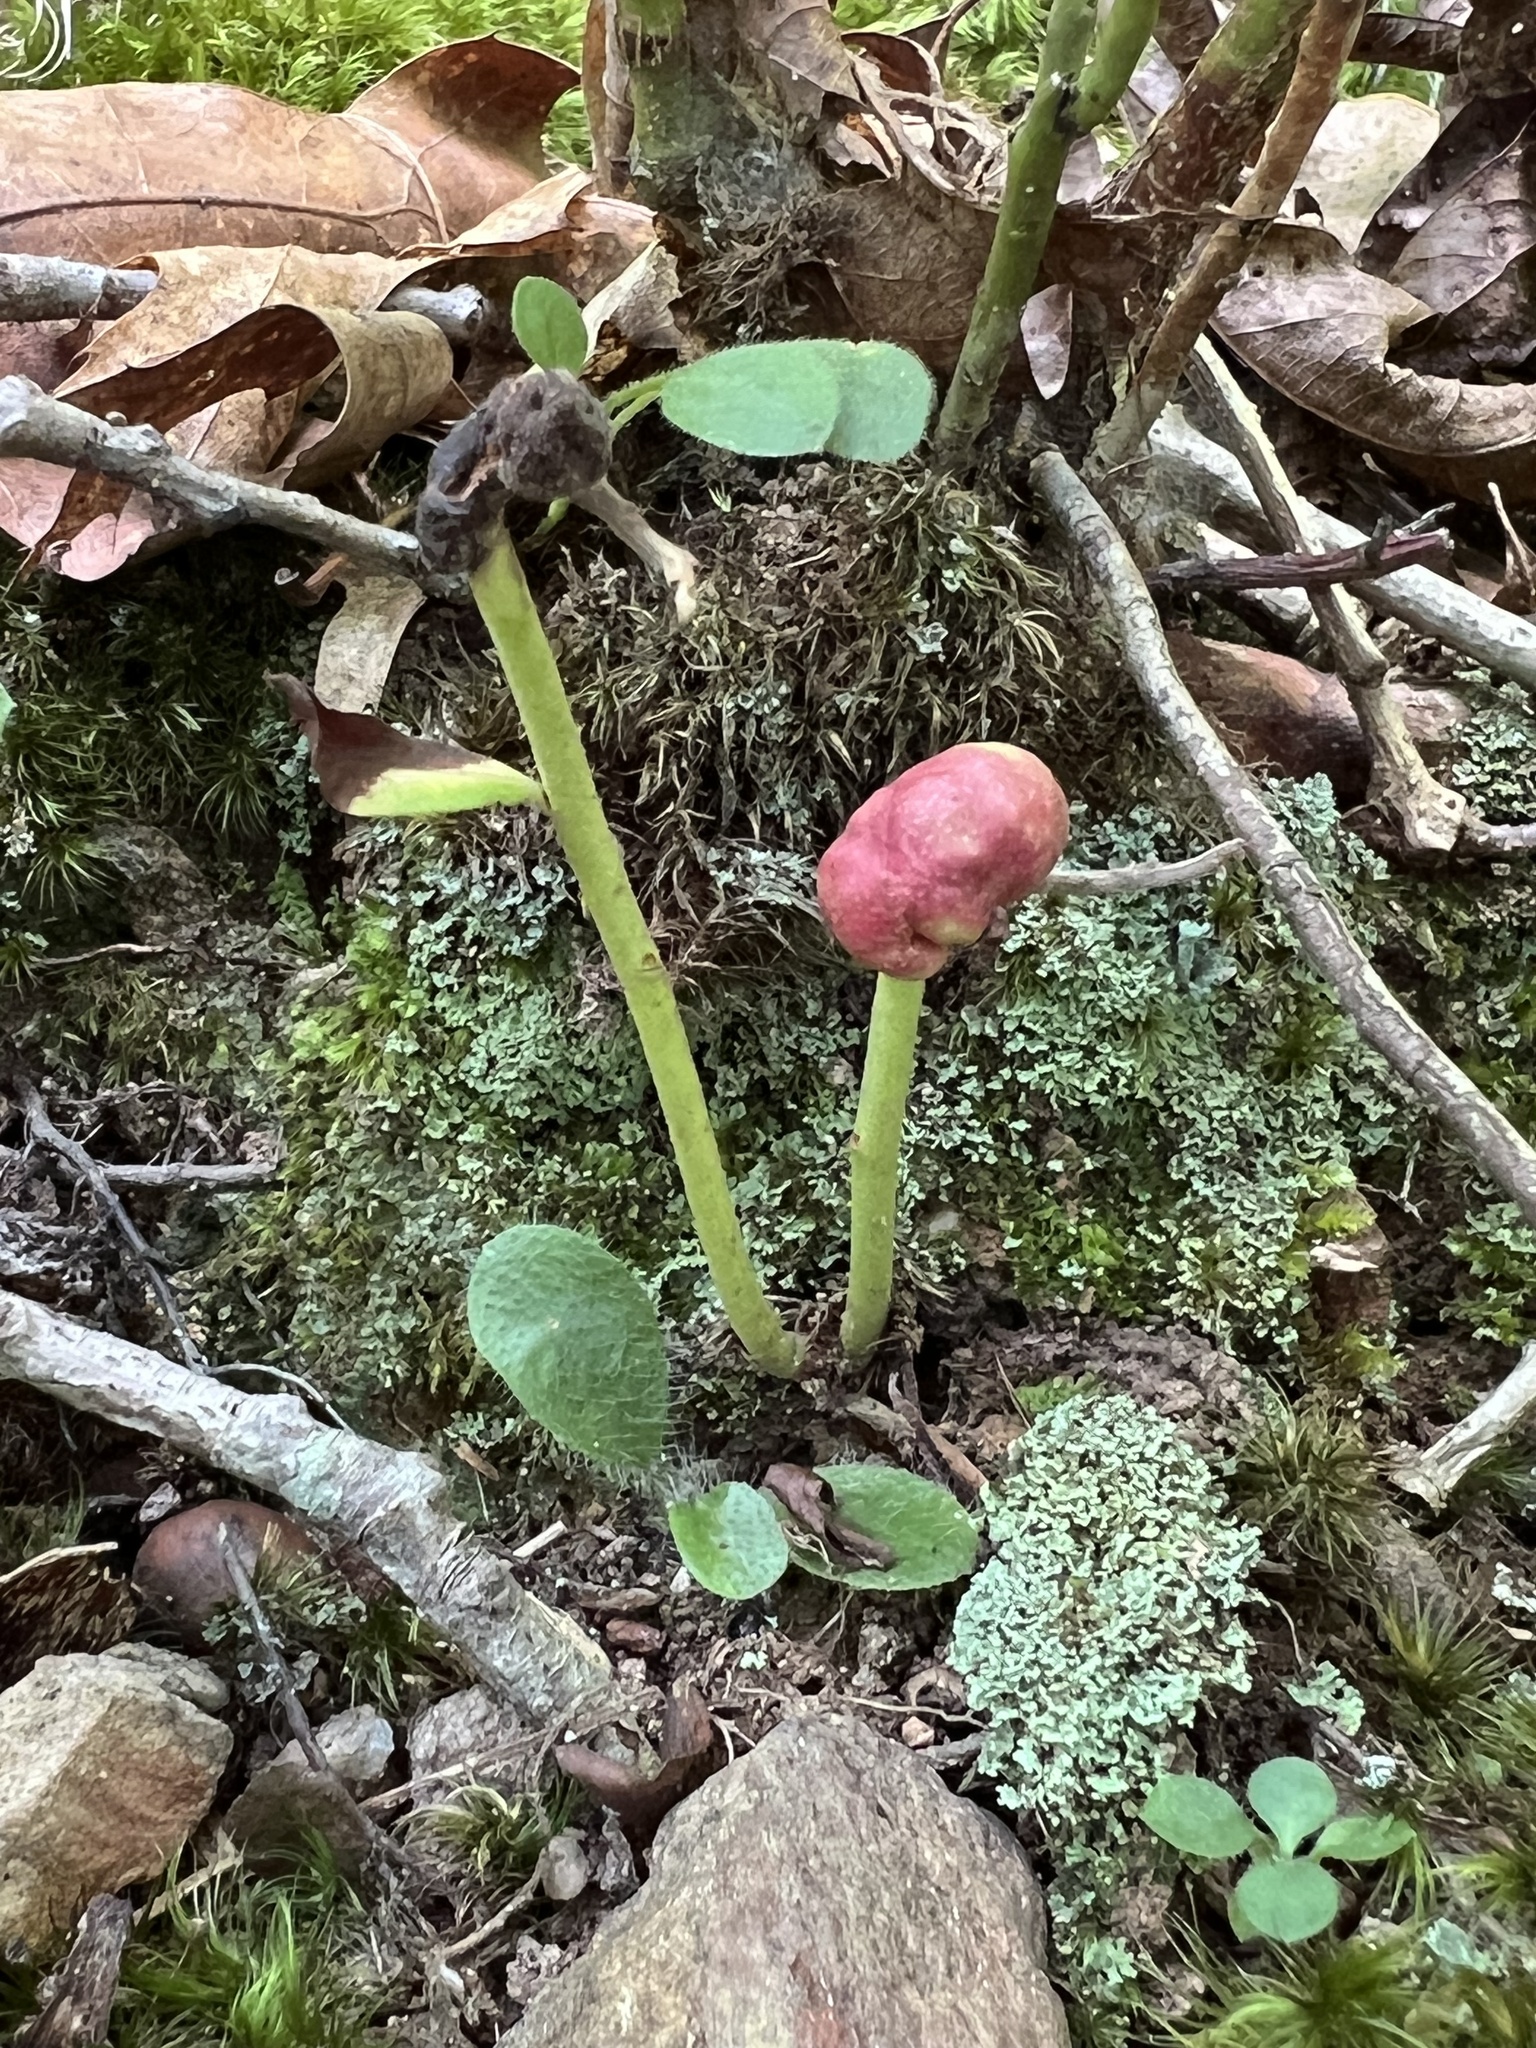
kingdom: Animalia
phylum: Arthropoda
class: Insecta
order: Hymenoptera
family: Pteromalidae
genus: Hemadas
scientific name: Hemadas nubilipennis
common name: Blueberry stem gall wasp
